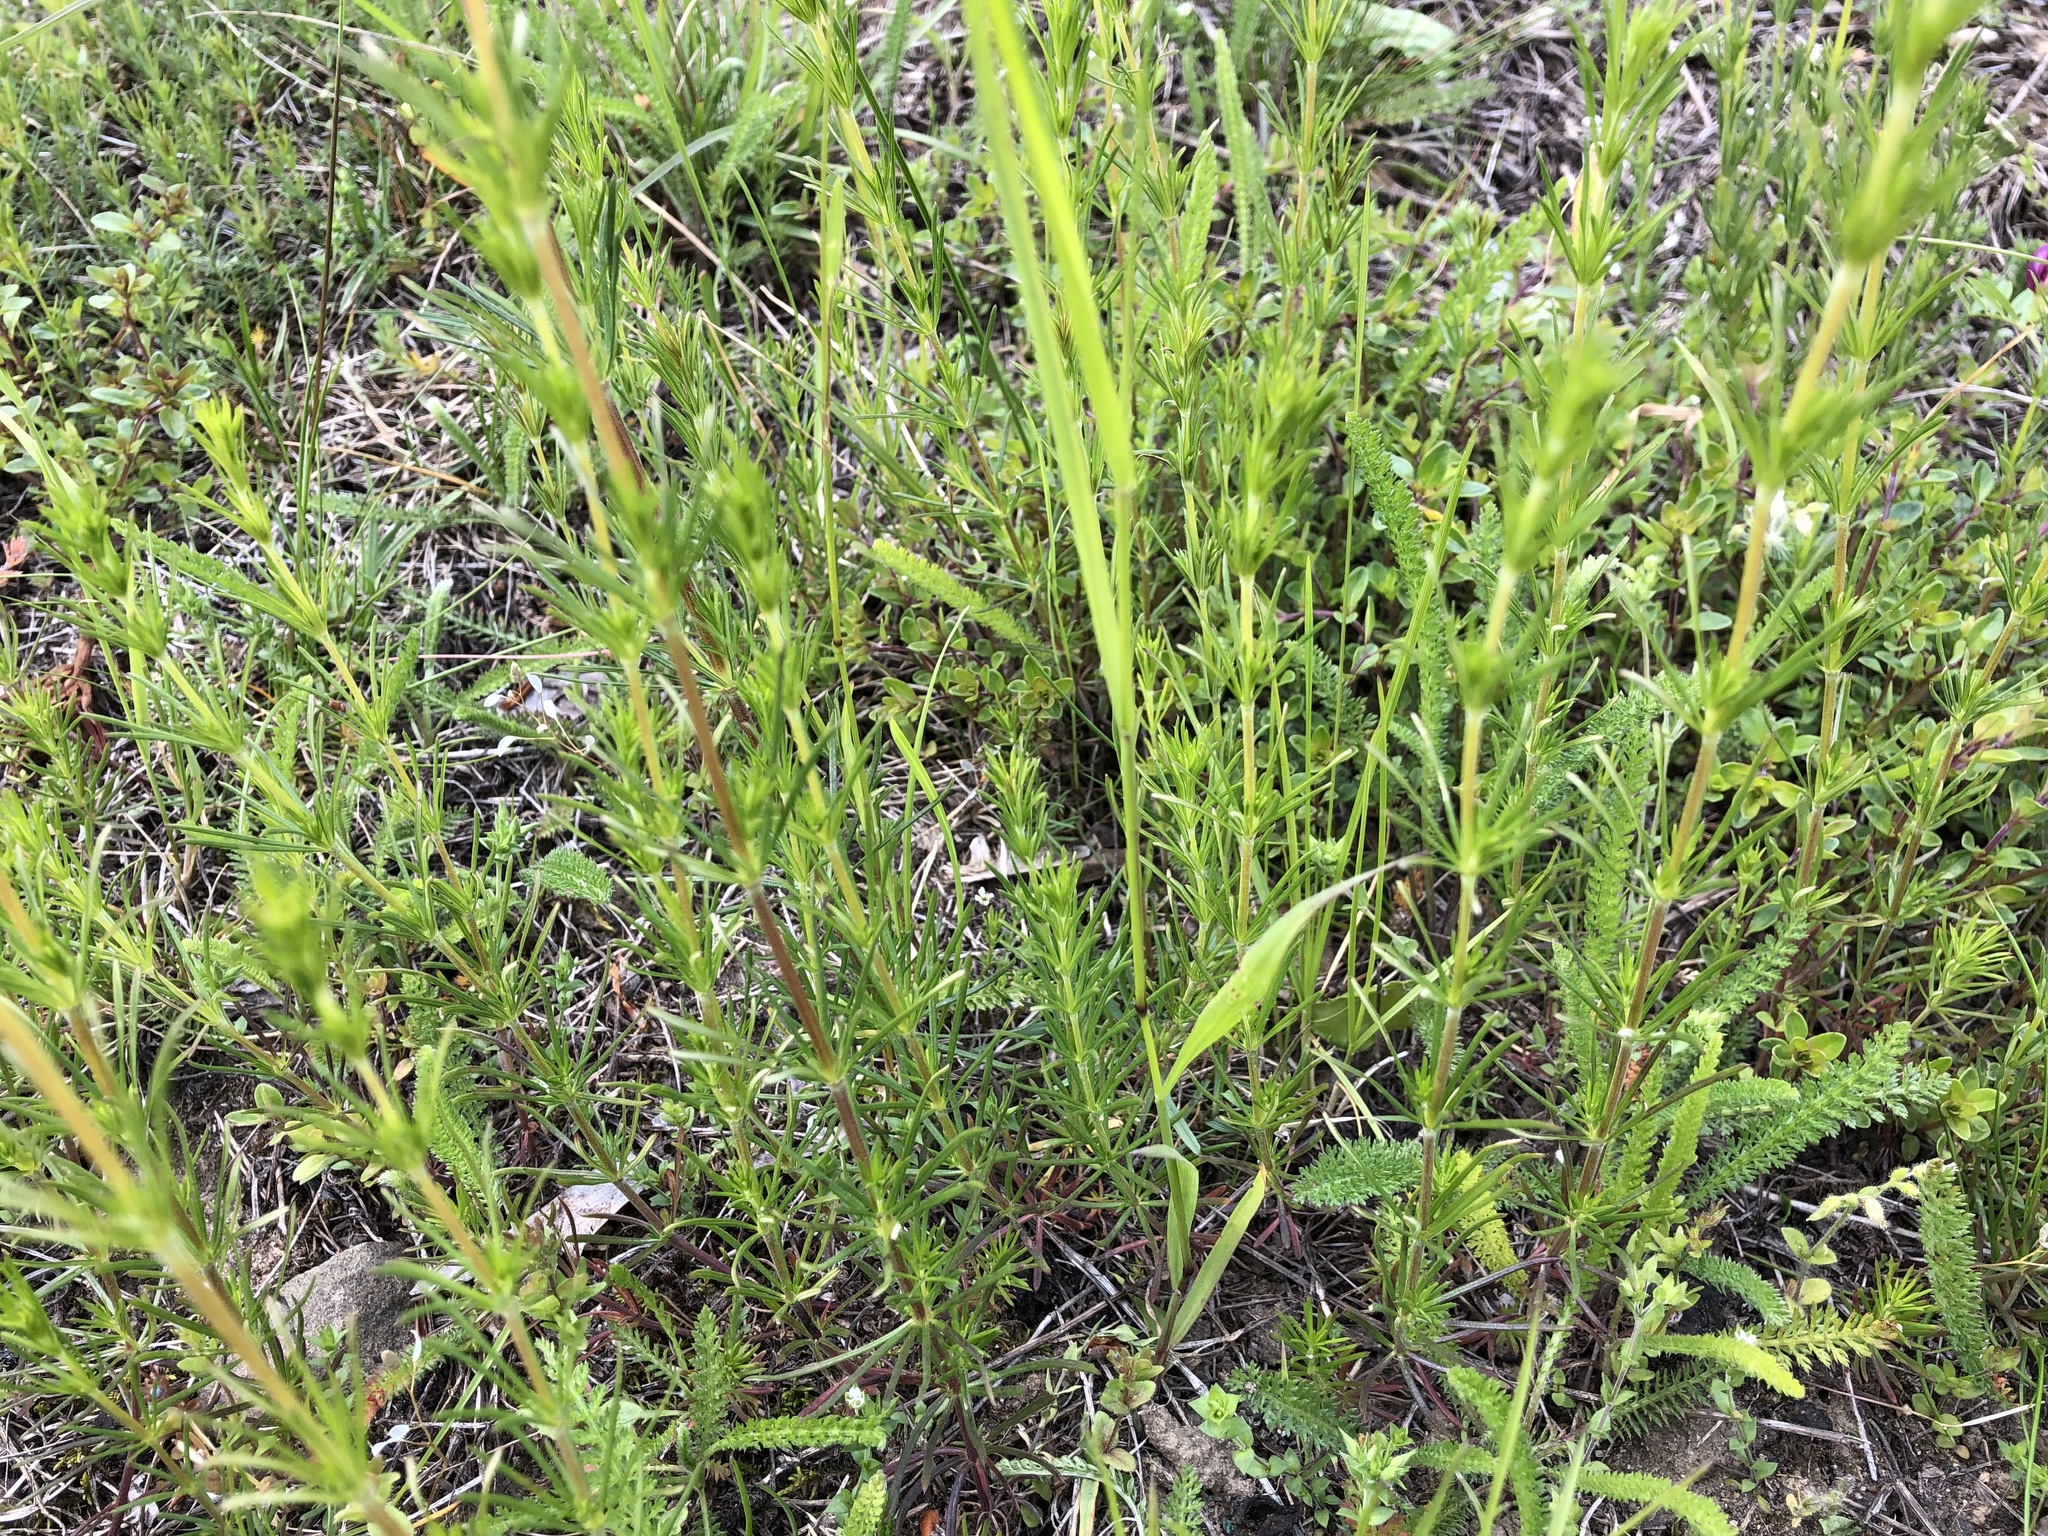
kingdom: Plantae
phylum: Tracheophyta
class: Magnoliopsida
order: Gentianales
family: Rubiaceae
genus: Galium
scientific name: Galium verum
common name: Lady's bedstraw
